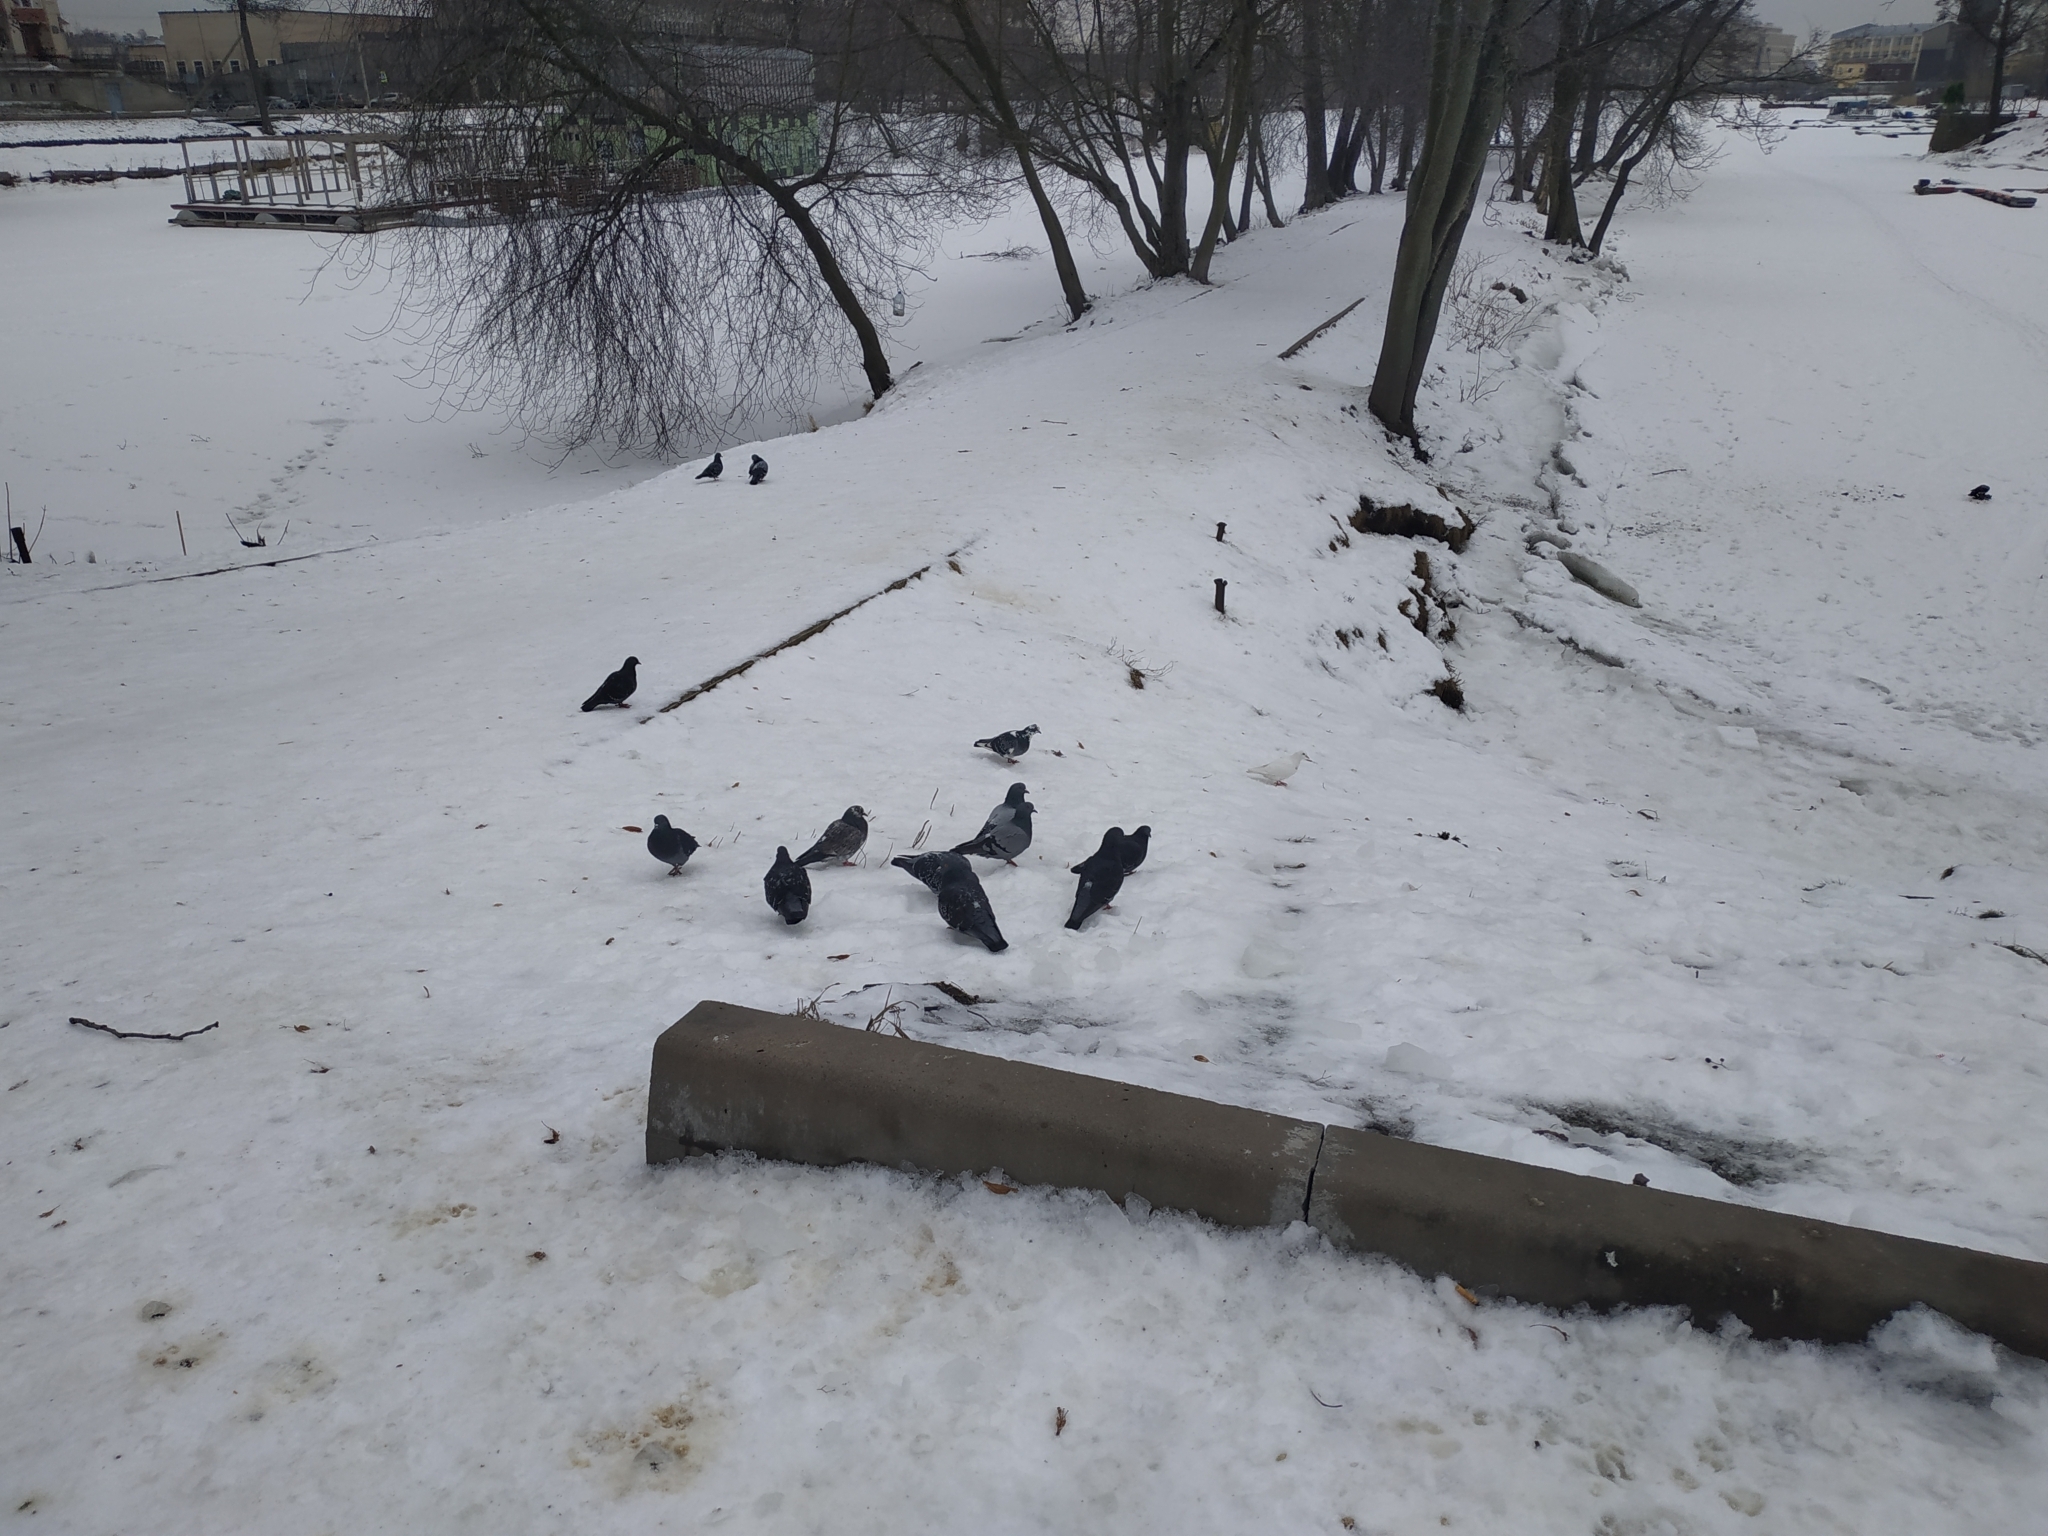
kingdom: Animalia
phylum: Chordata
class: Aves
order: Columbiformes
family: Columbidae
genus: Columba
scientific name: Columba livia
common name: Rock pigeon
